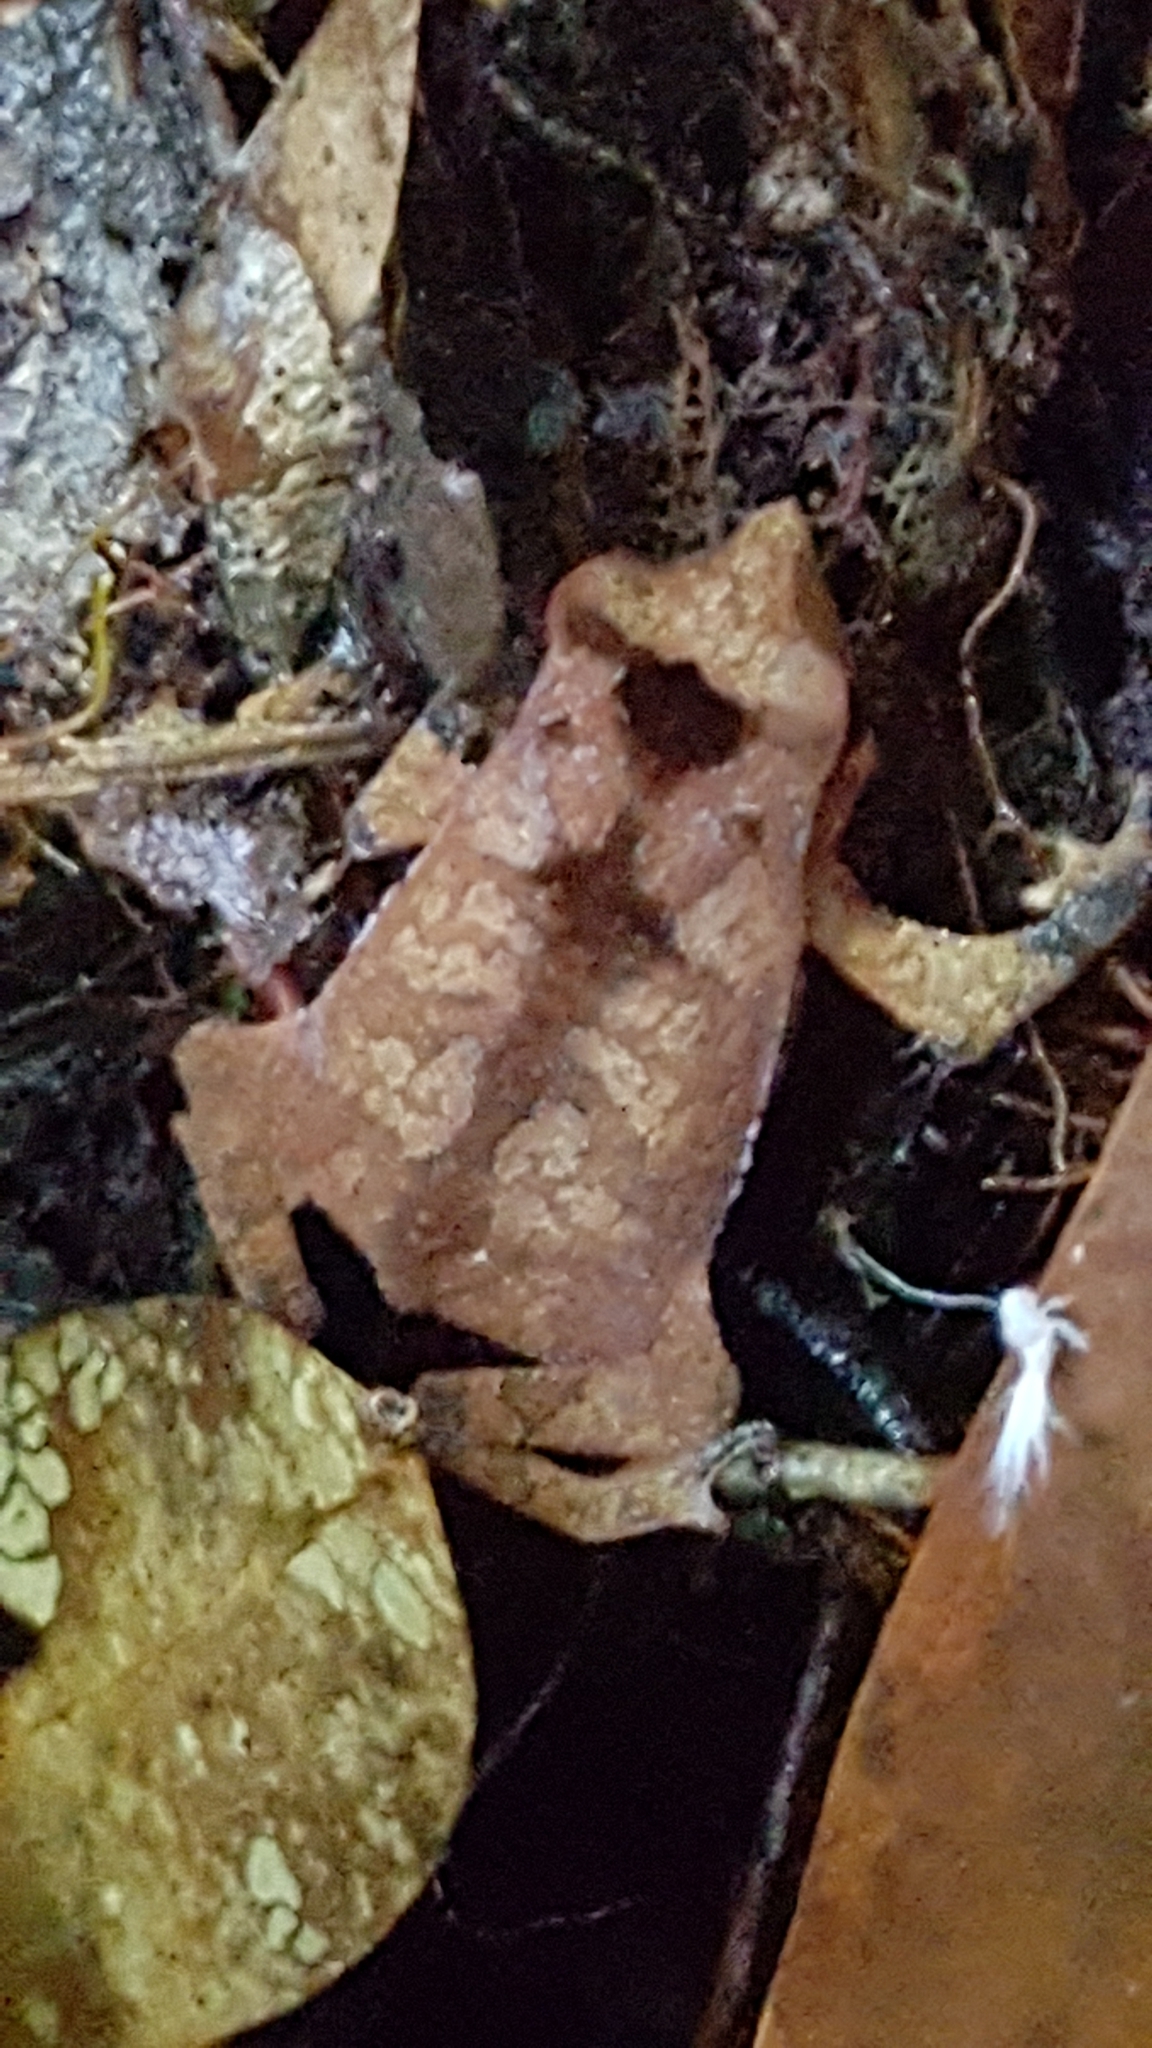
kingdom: Animalia
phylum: Chordata
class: Amphibia
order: Anura
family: Bufonidae
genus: Rhinella
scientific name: Rhinella proboscidea
